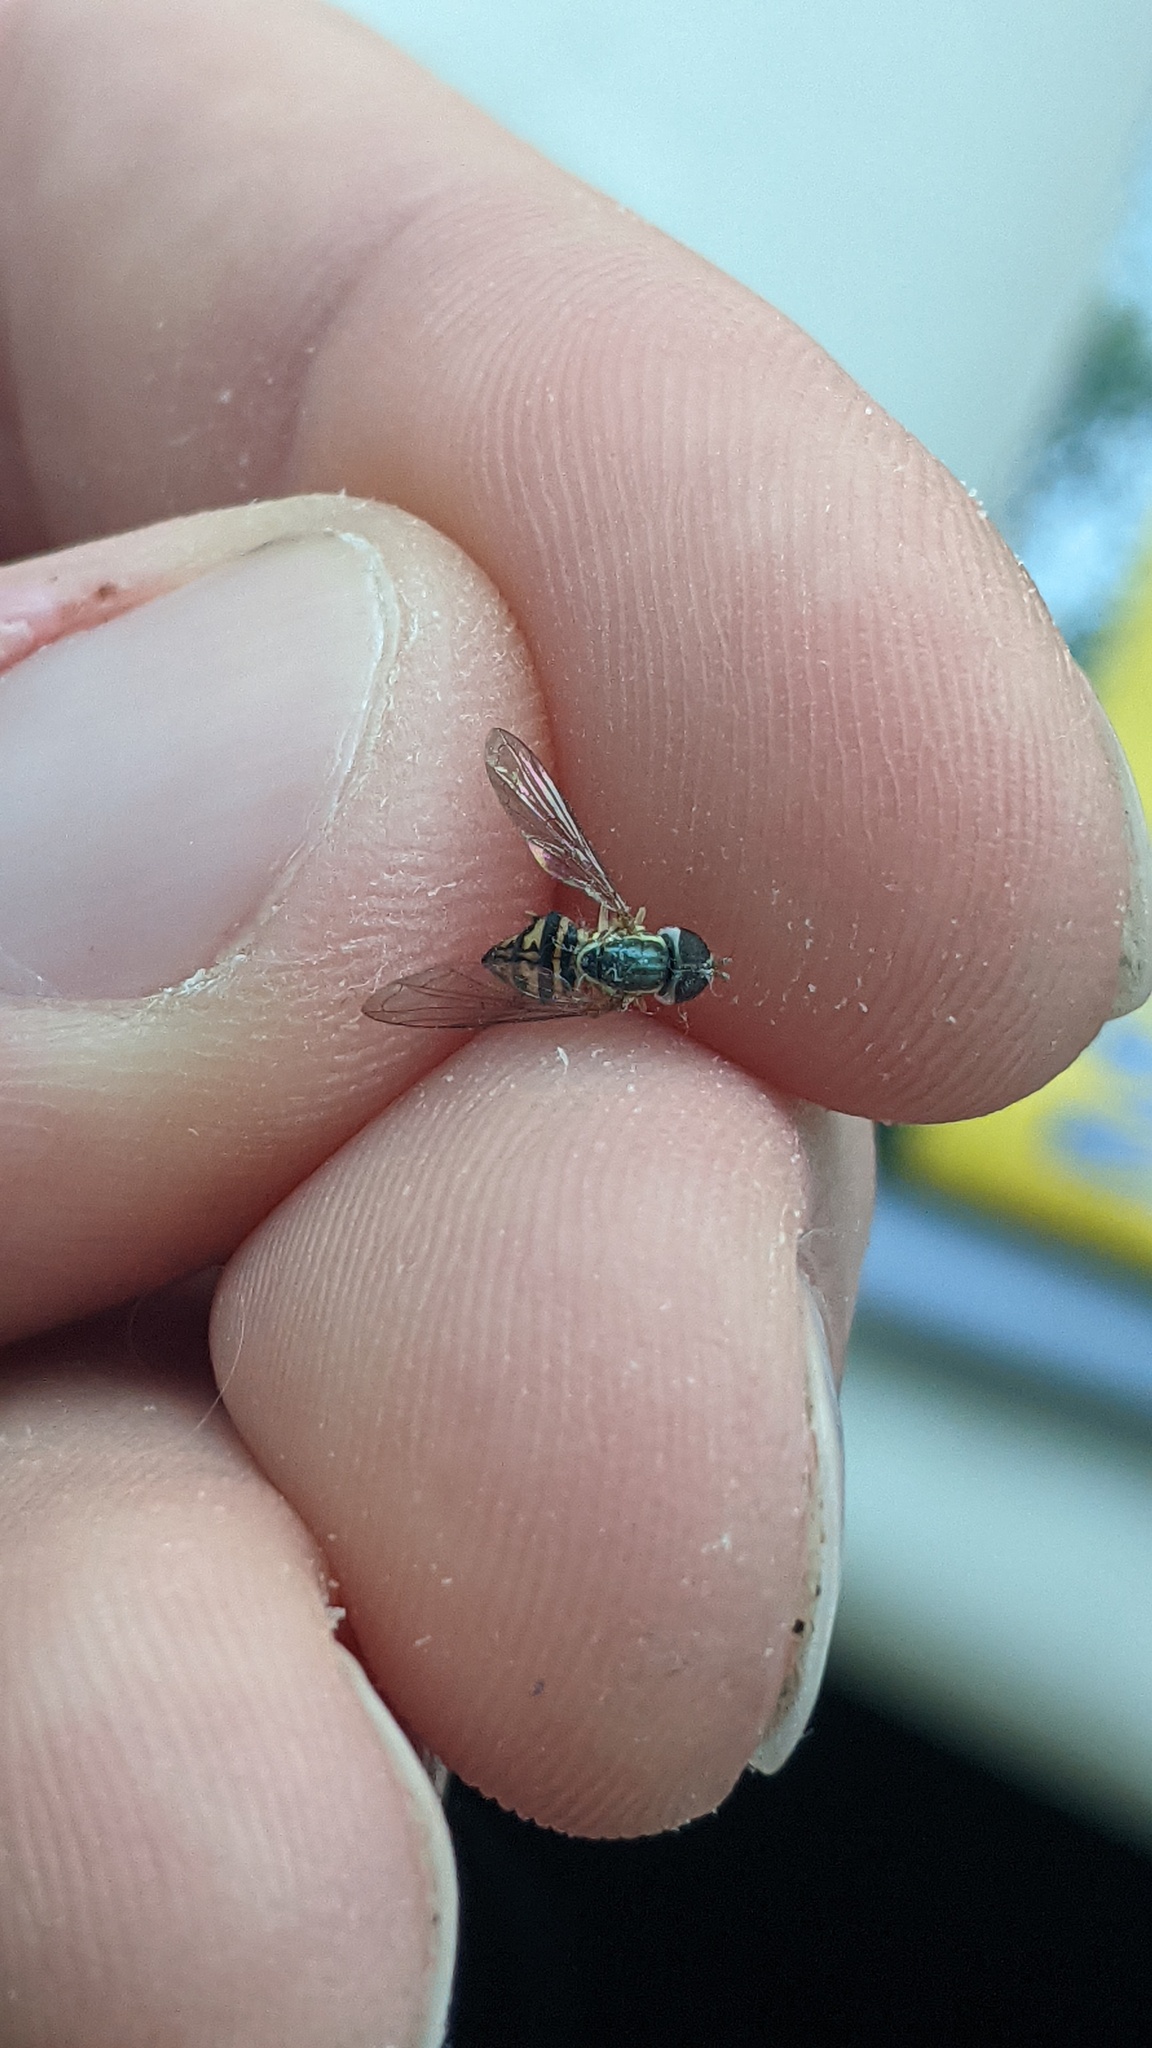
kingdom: Animalia
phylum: Arthropoda
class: Insecta
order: Diptera
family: Syrphidae
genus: Toxomerus
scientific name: Toxomerus geminatus
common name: Eastern calligrapher
